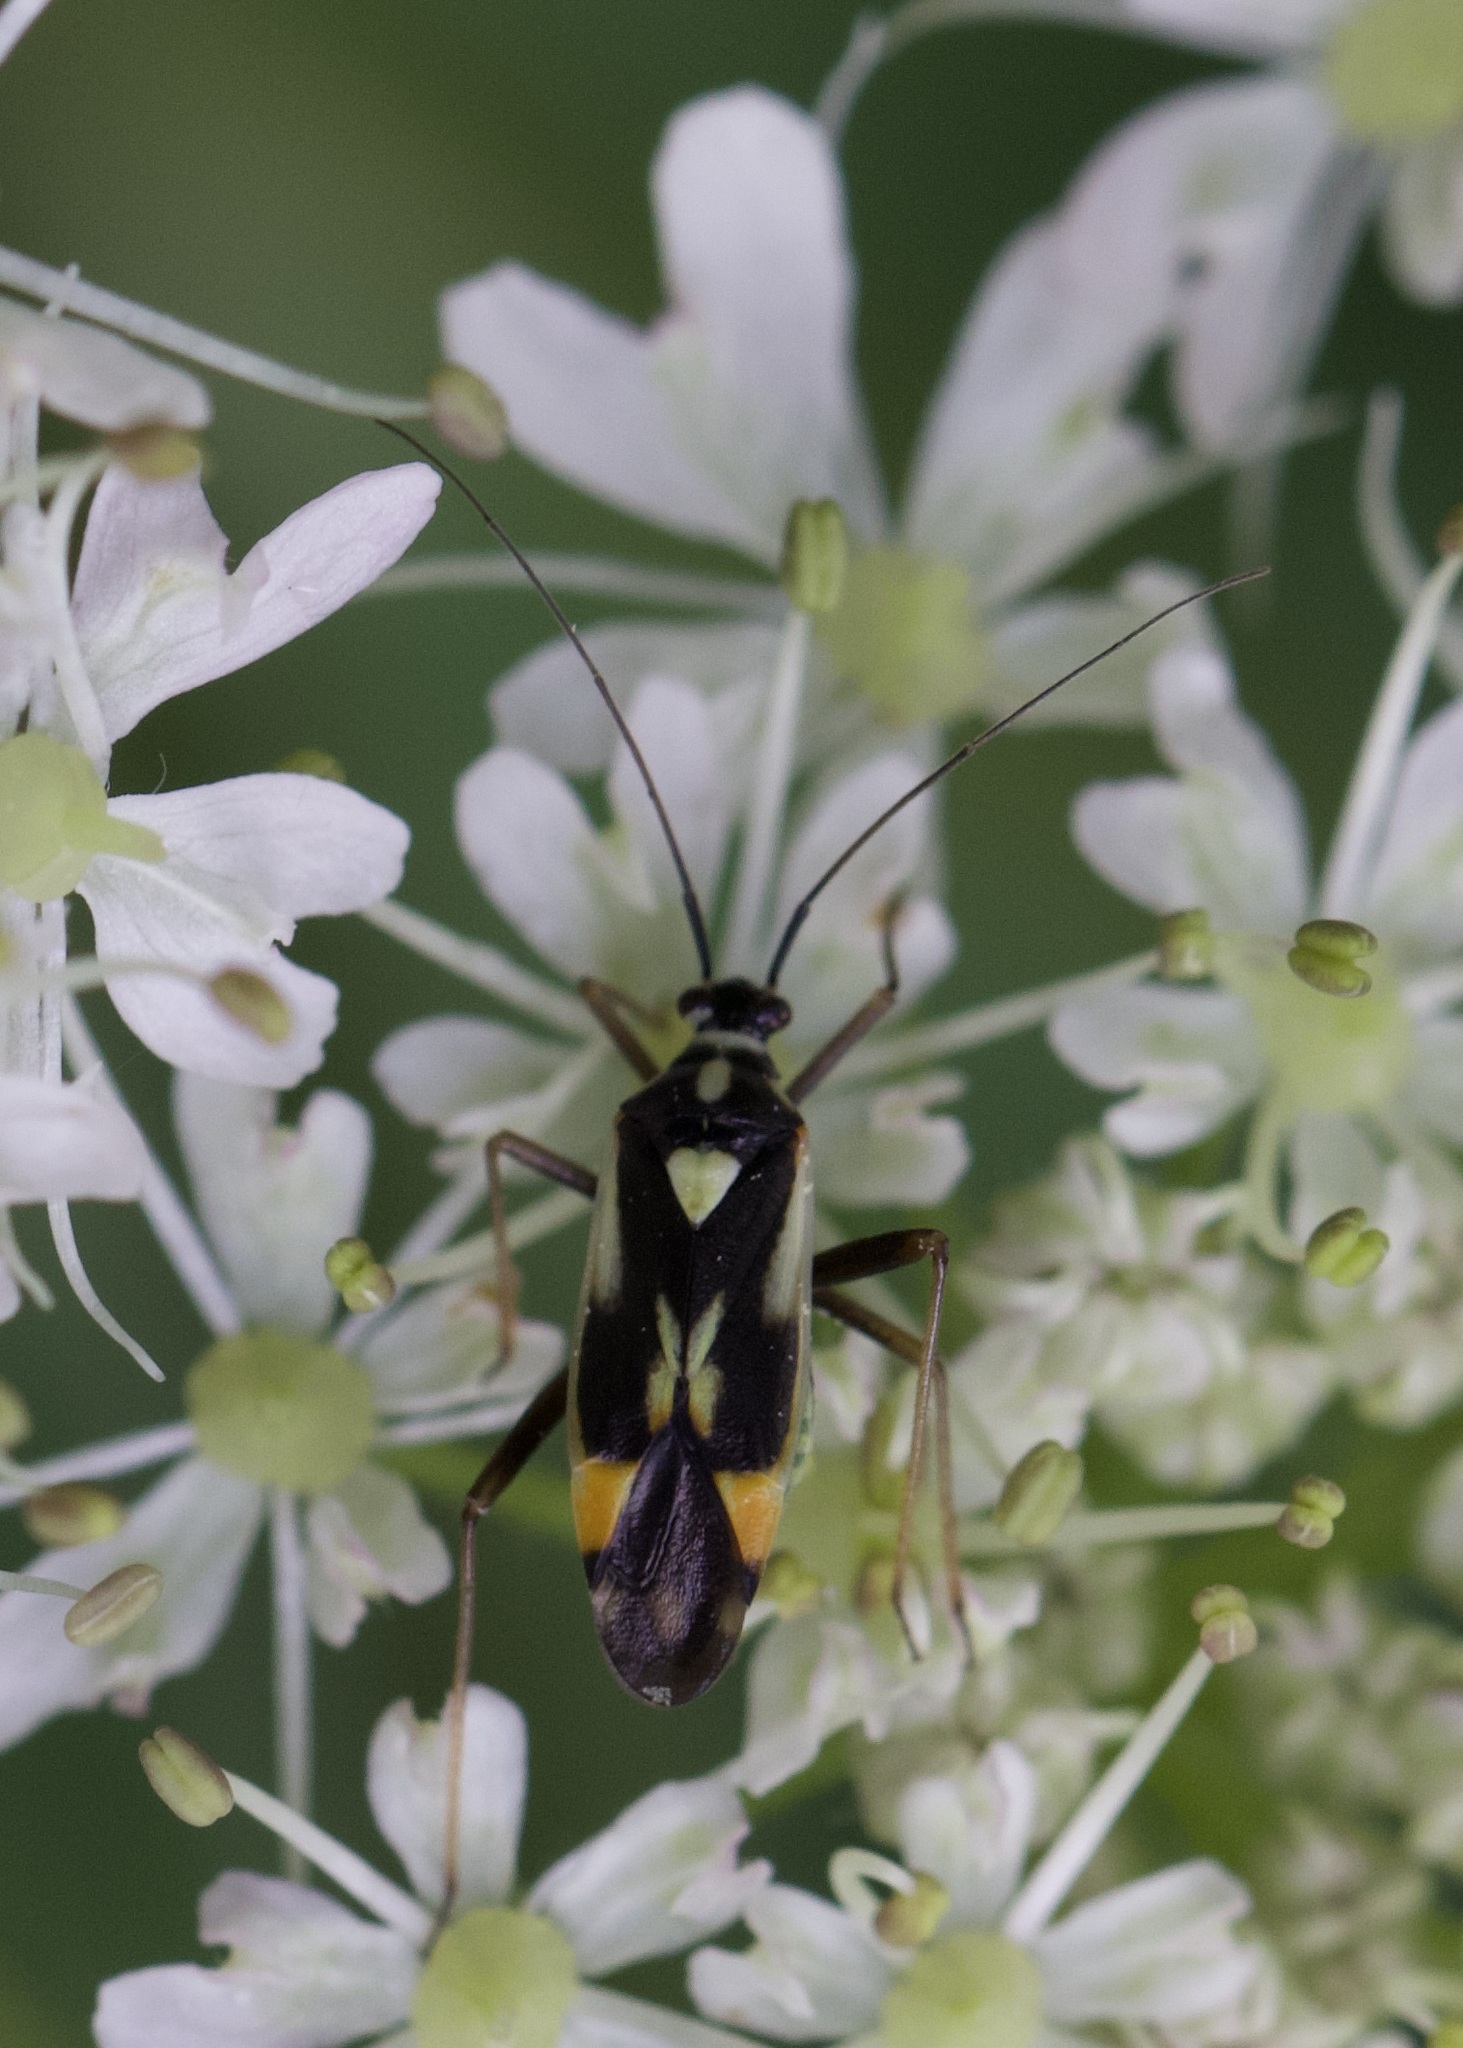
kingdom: Animalia
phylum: Arthropoda
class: Insecta
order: Hemiptera
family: Miridae
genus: Grypocoris
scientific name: Grypocoris stysi
